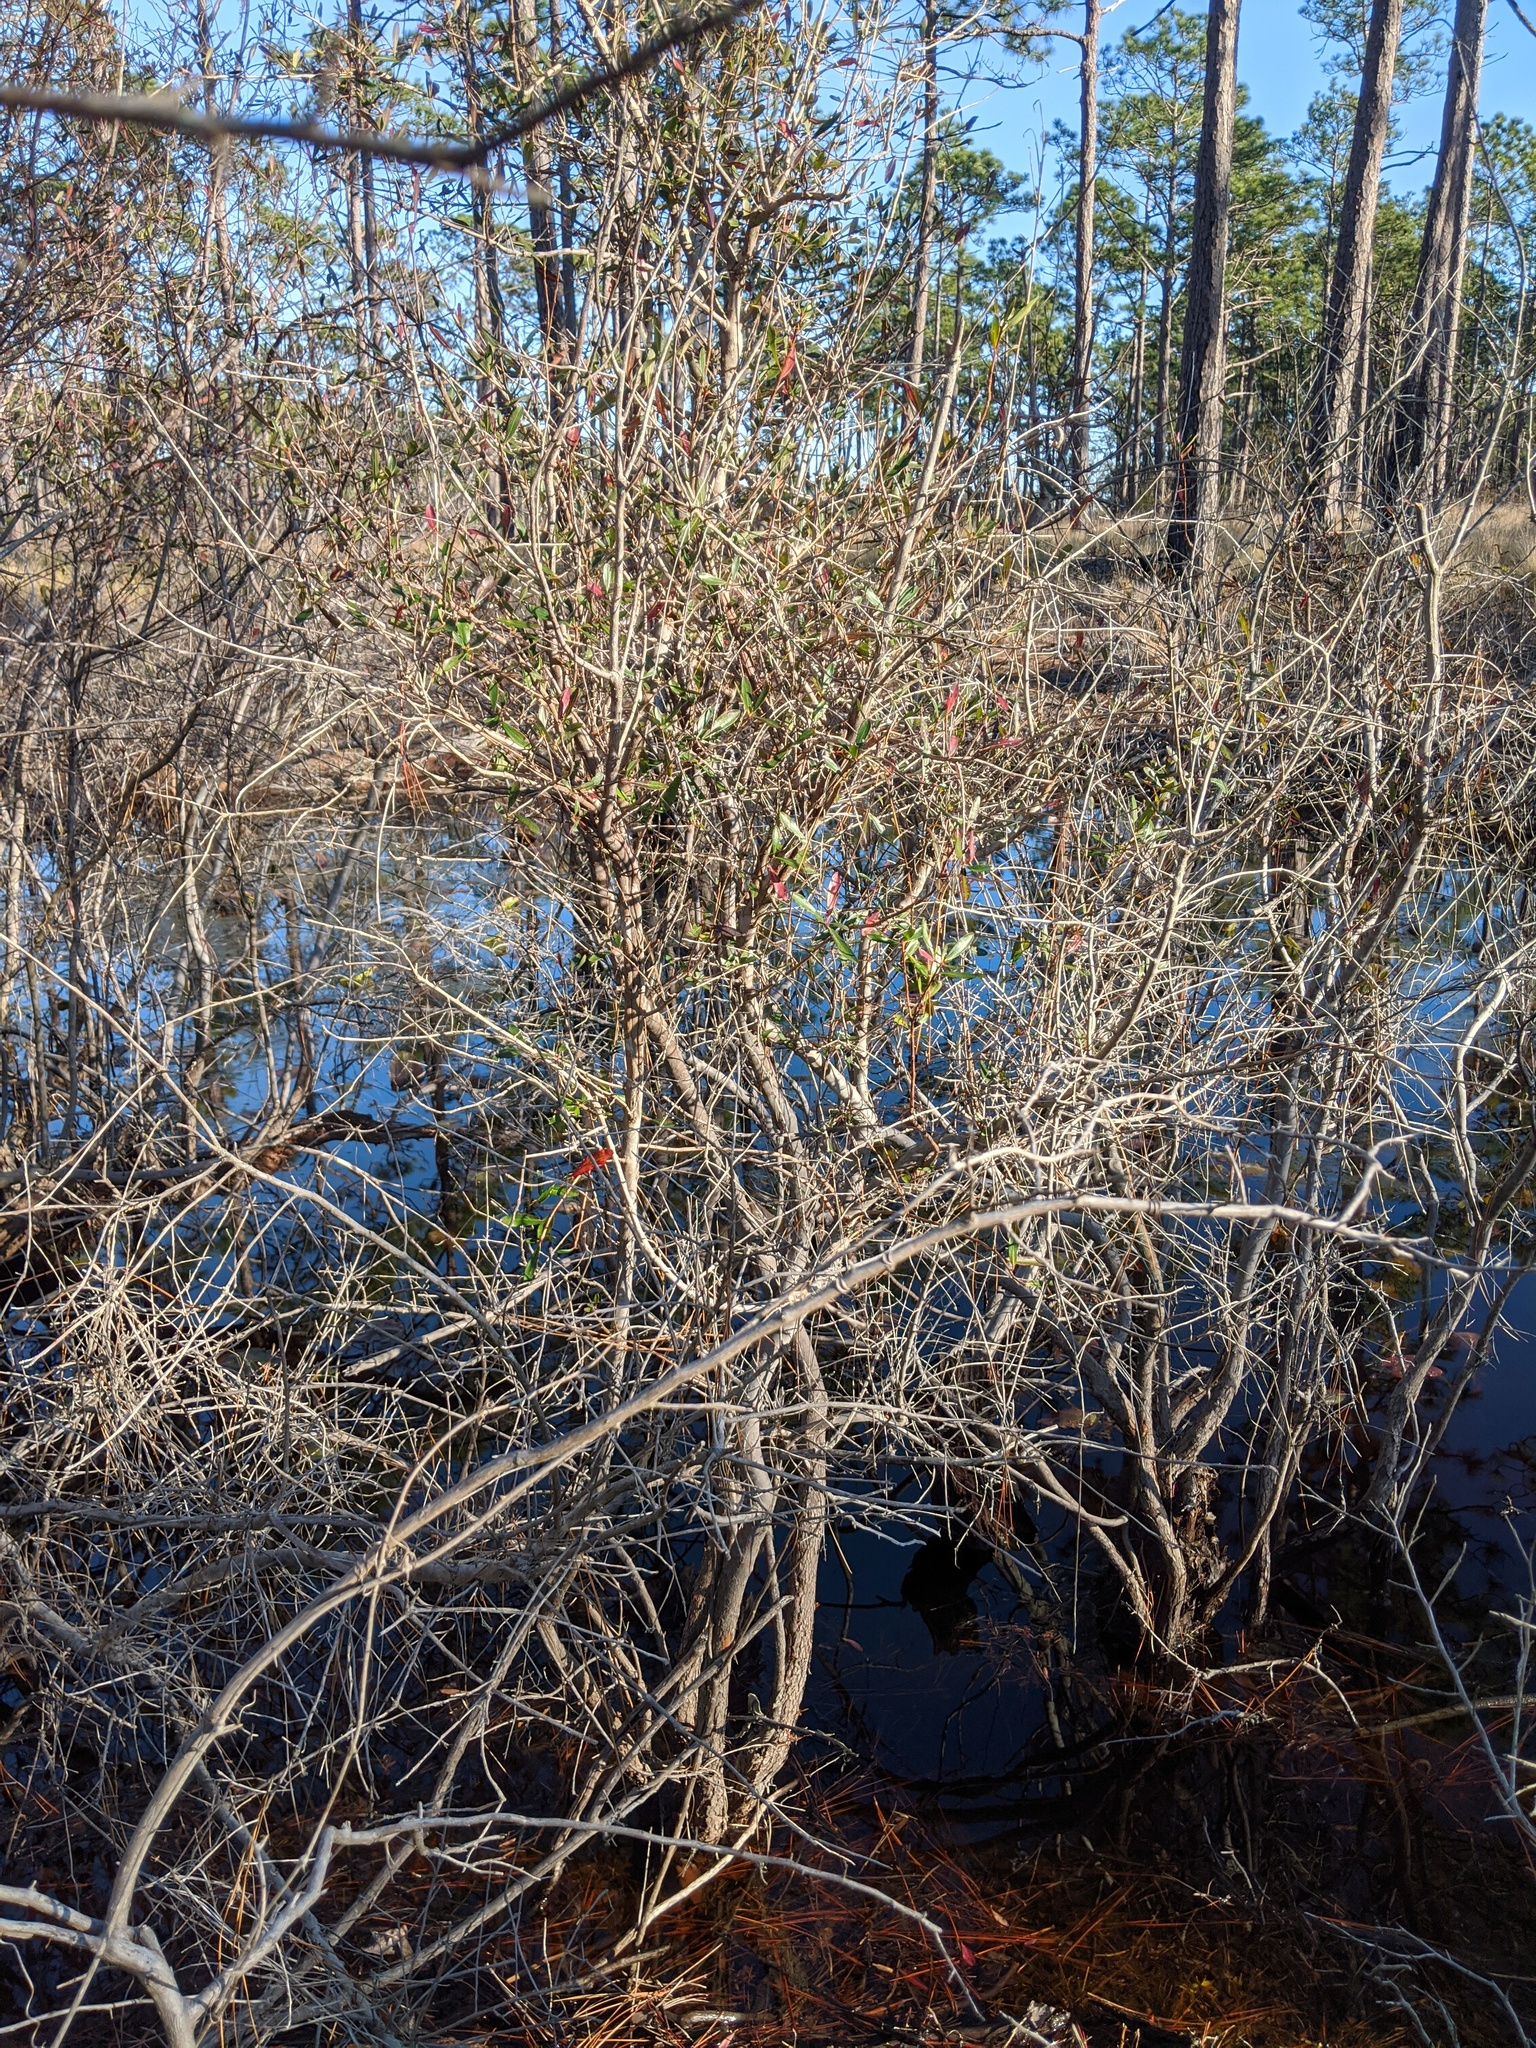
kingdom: Plantae
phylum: Tracheophyta
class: Magnoliopsida
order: Ericales
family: Cyrillaceae
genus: Cyrilla
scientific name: Cyrilla racemiflora
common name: Black titi
